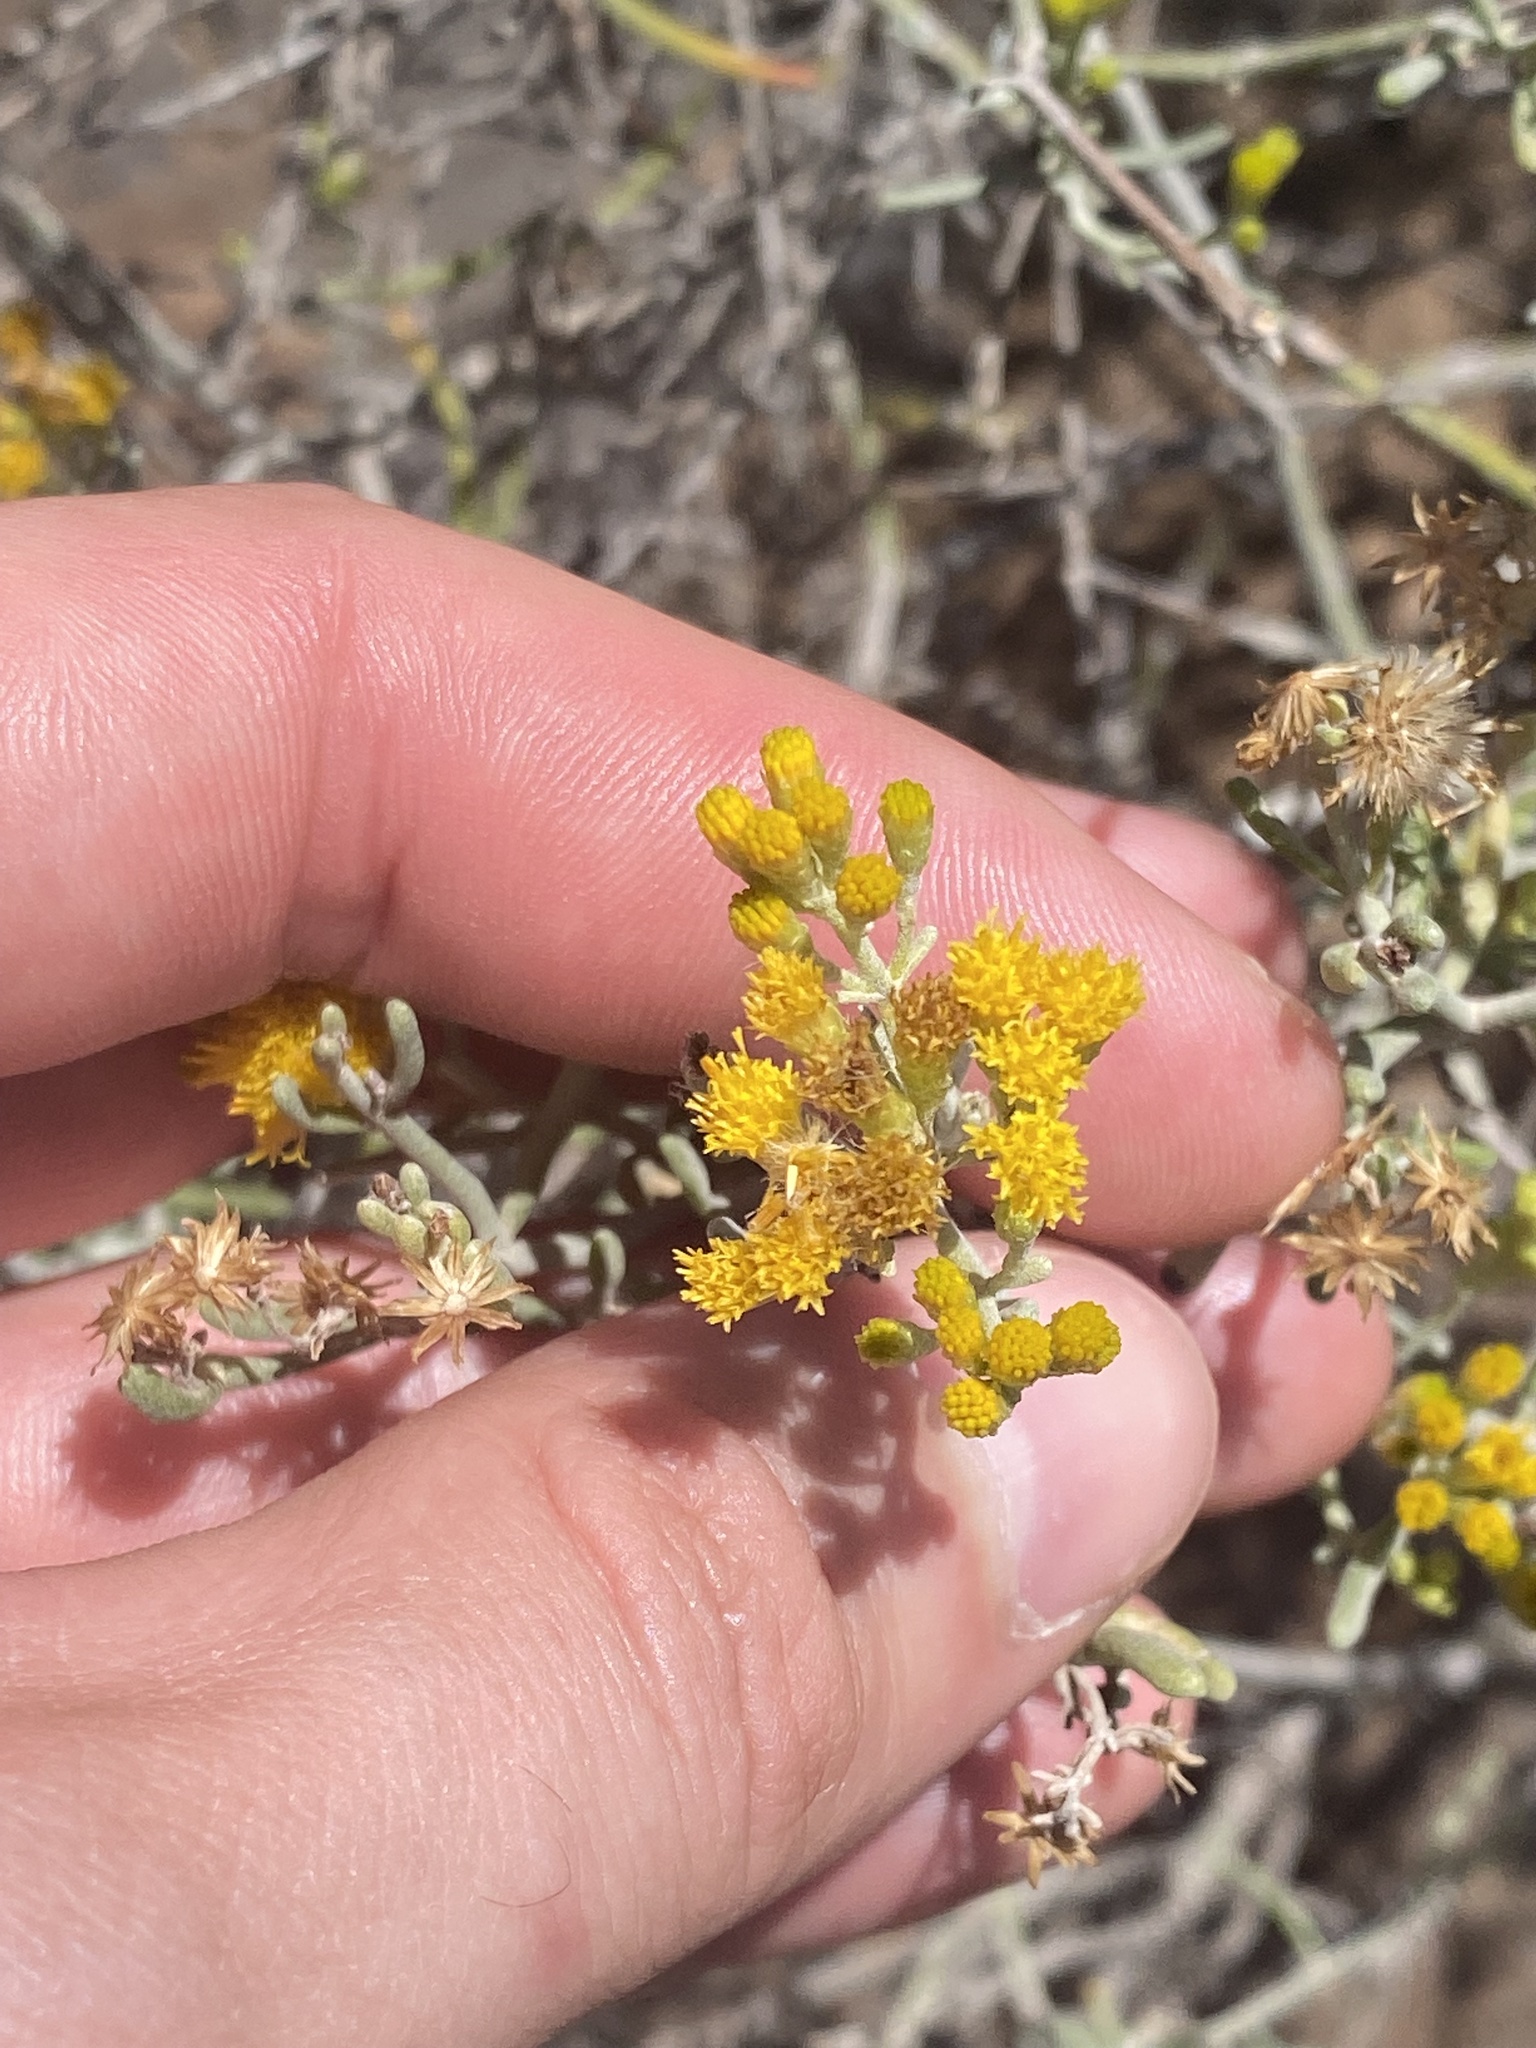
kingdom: Plantae
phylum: Tracheophyta
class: Magnoliopsida
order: Asterales
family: Asteraceae
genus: Schizogyne
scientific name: Schizogyne sericea
